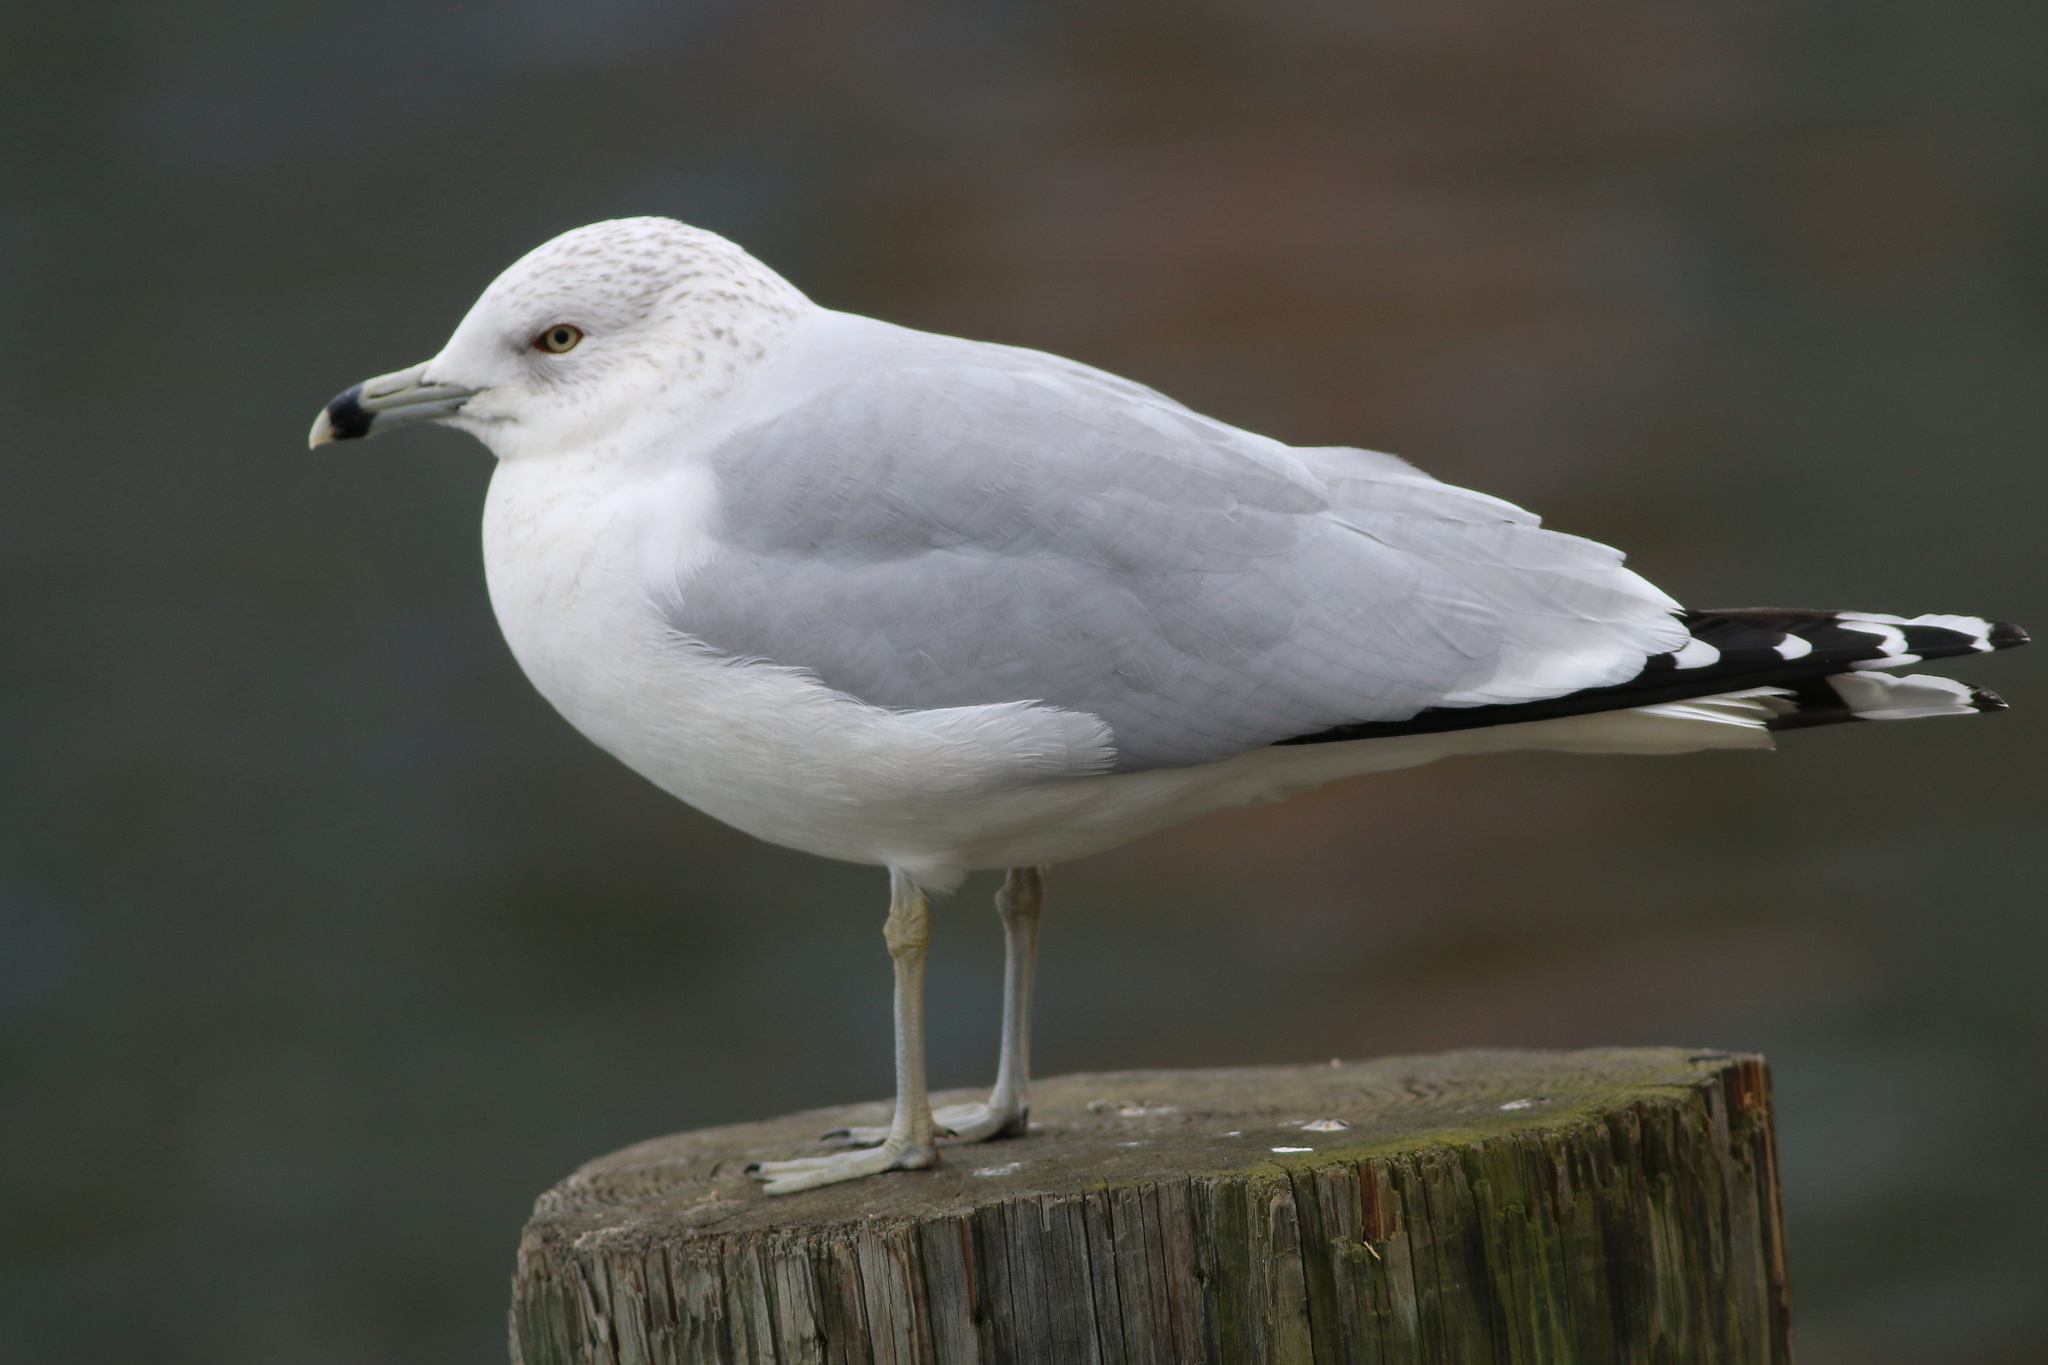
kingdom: Animalia
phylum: Chordata
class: Aves
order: Charadriiformes
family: Laridae
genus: Larus
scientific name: Larus delawarensis
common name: Ring-billed gull
